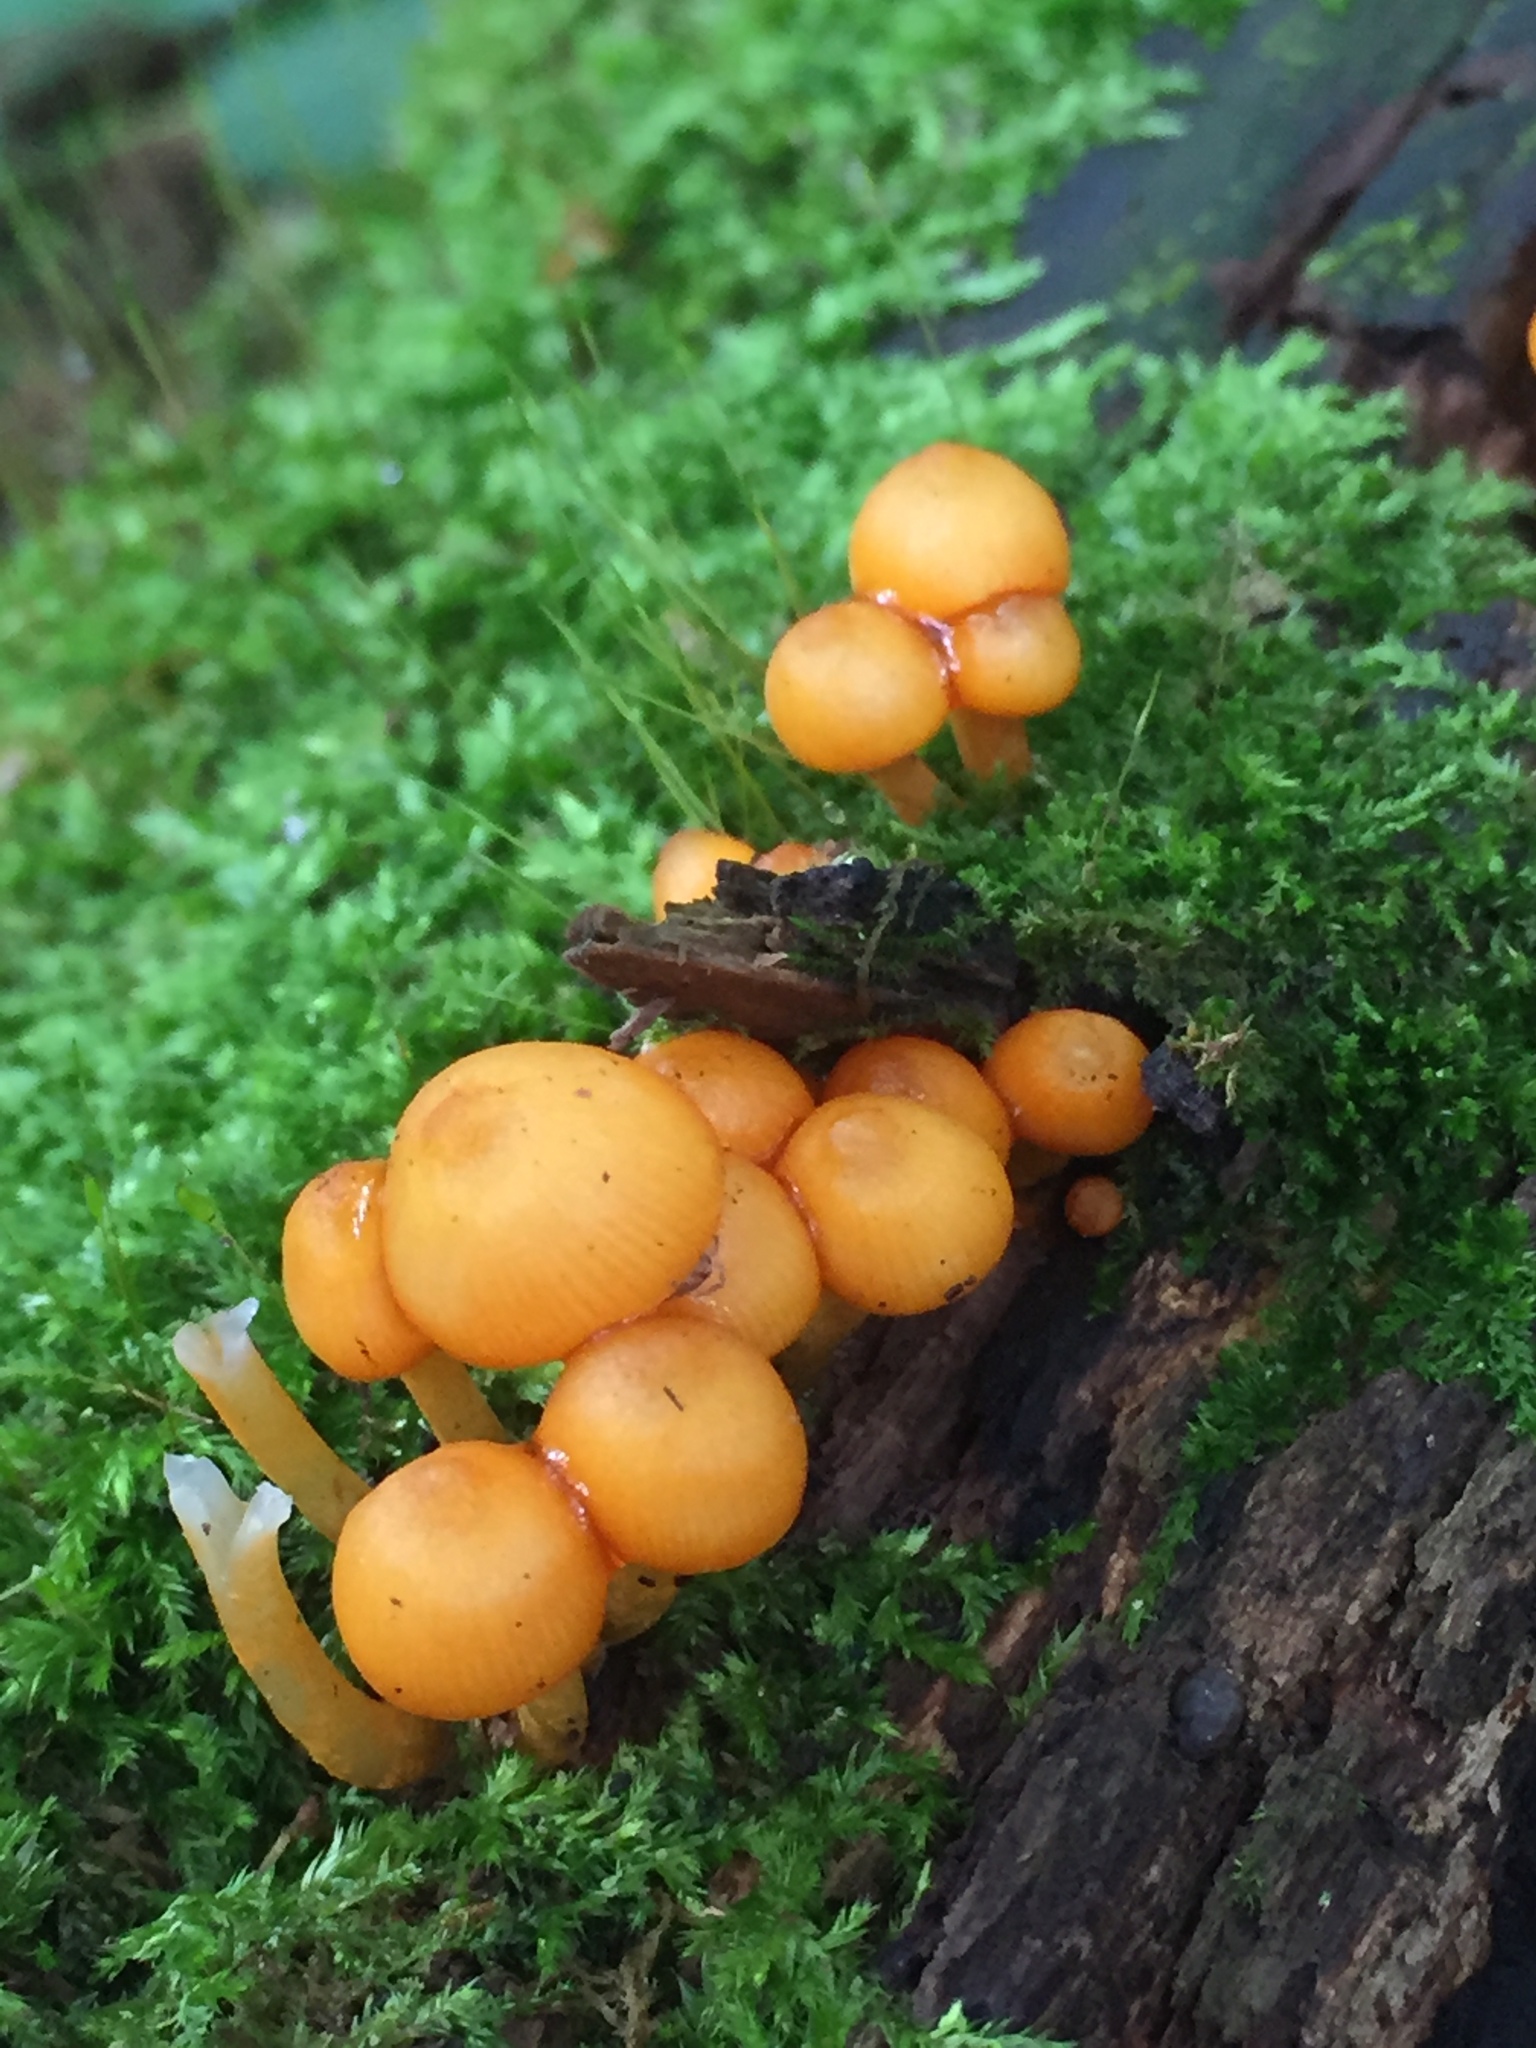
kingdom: Fungi
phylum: Basidiomycota
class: Agaricomycetes
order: Agaricales
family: Mycenaceae
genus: Mycena
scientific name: Mycena leaiana
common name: Orange mycena
